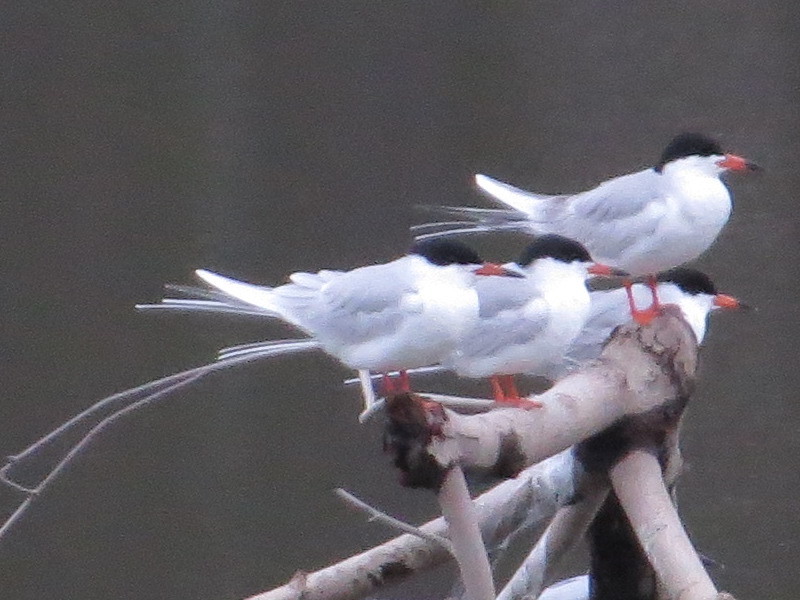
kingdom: Animalia
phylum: Chordata
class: Aves
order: Charadriiformes
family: Laridae
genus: Sterna
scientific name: Sterna forsteri
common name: Forster's tern
